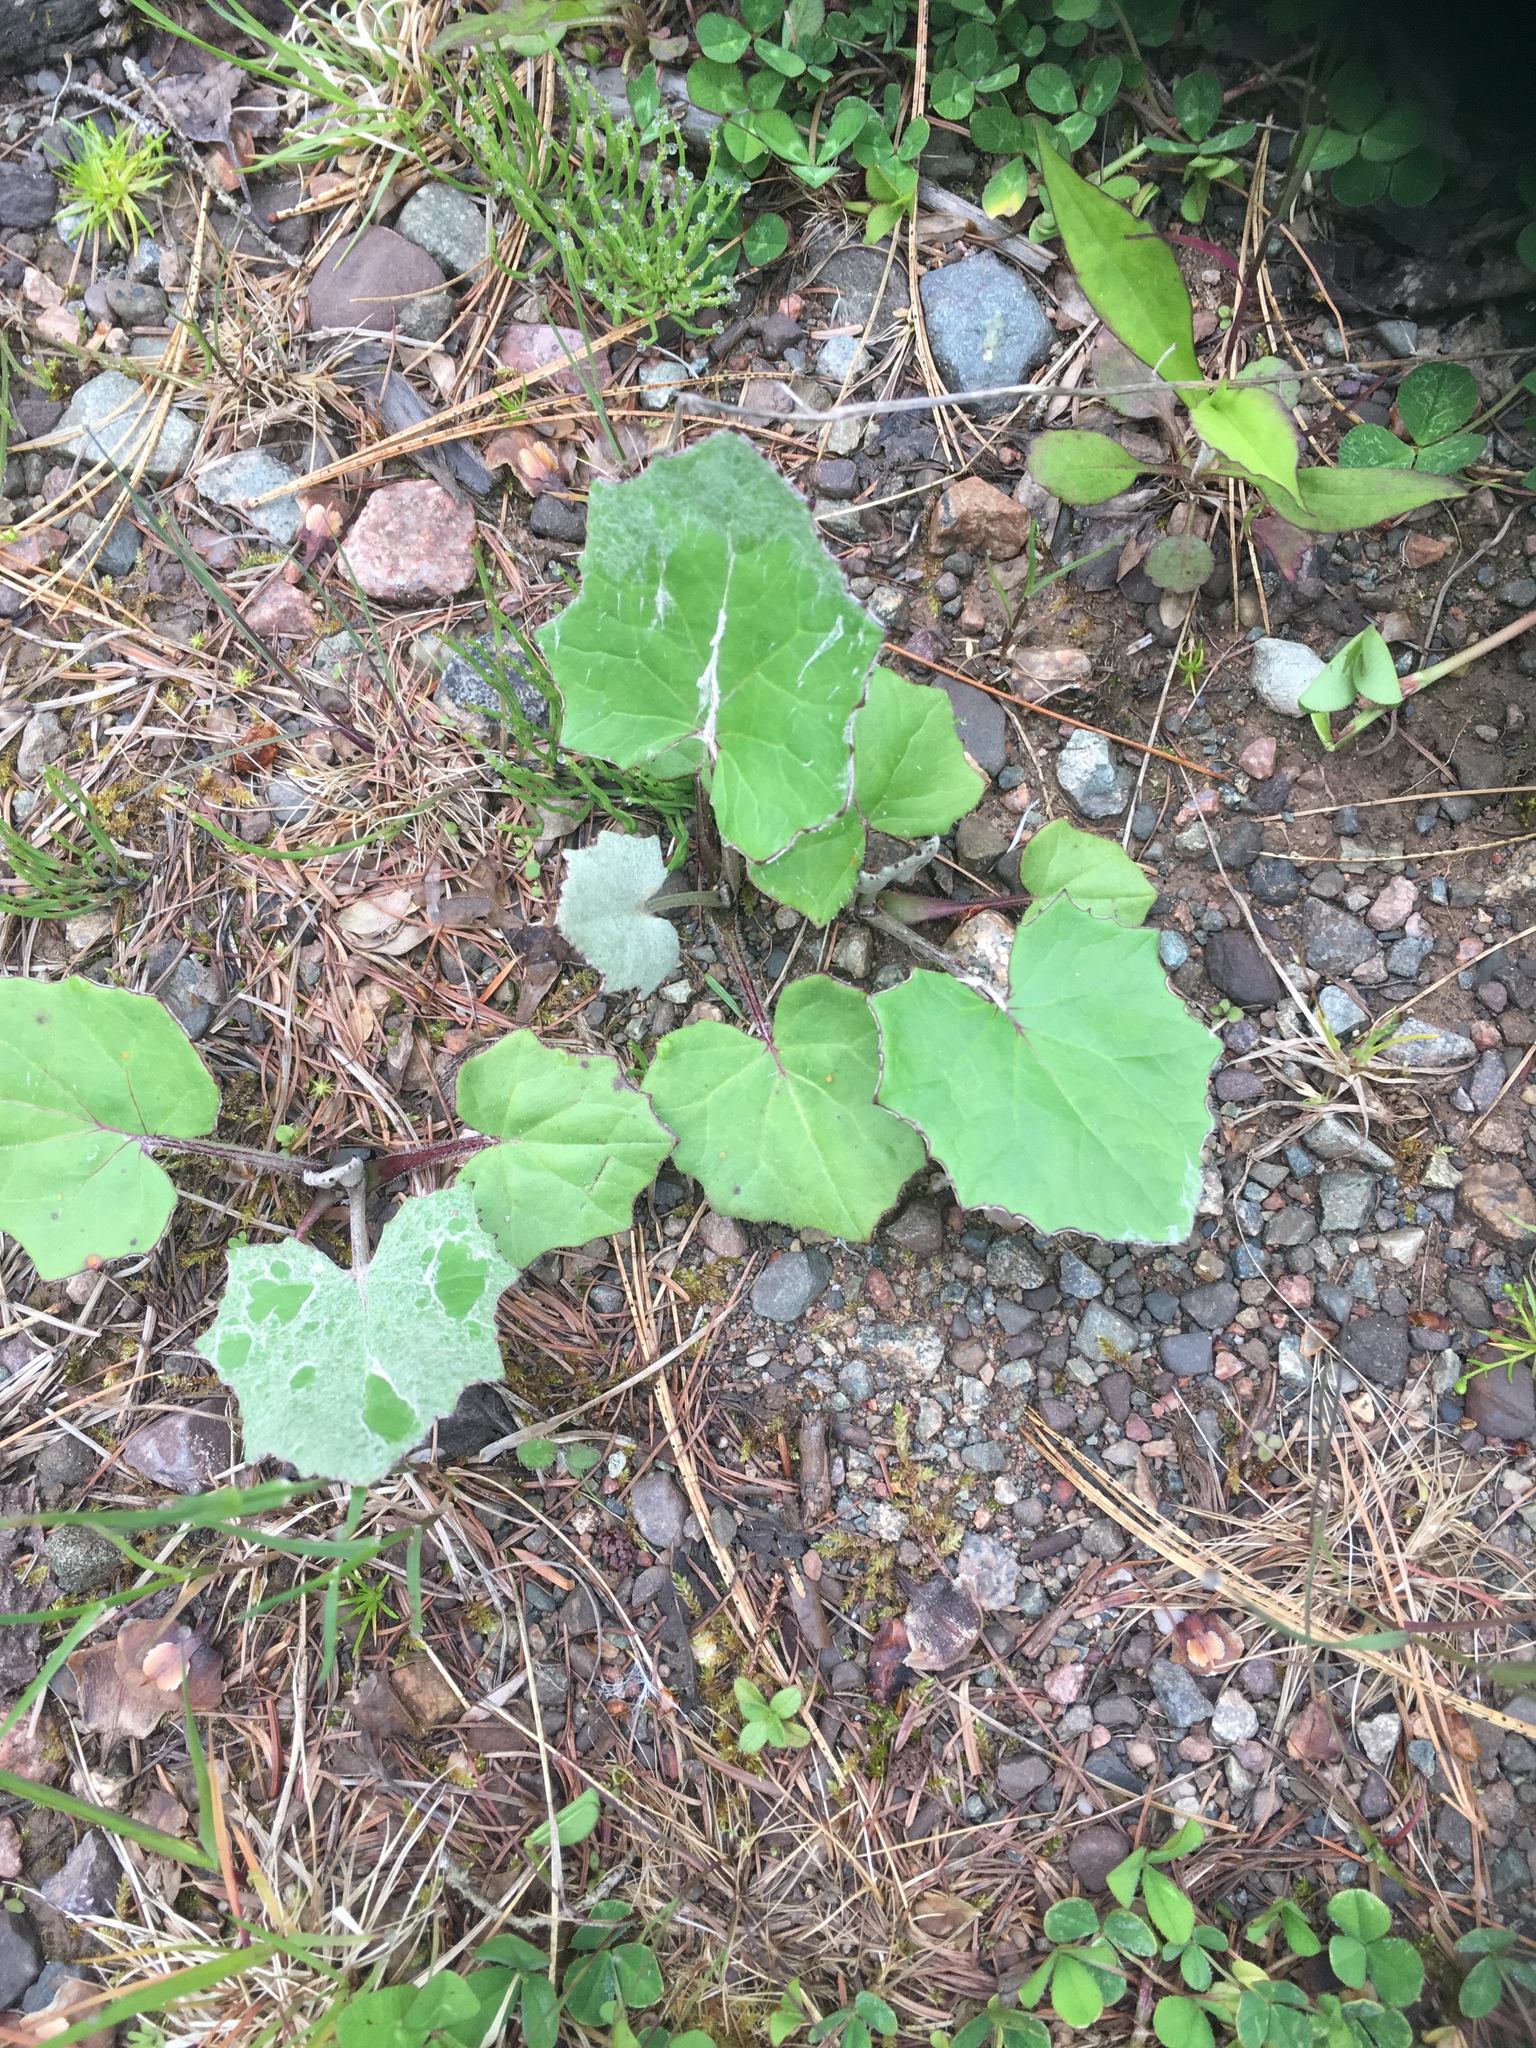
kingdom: Plantae
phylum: Tracheophyta
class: Magnoliopsida
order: Asterales
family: Asteraceae
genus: Tussilago
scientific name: Tussilago farfara
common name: Coltsfoot
